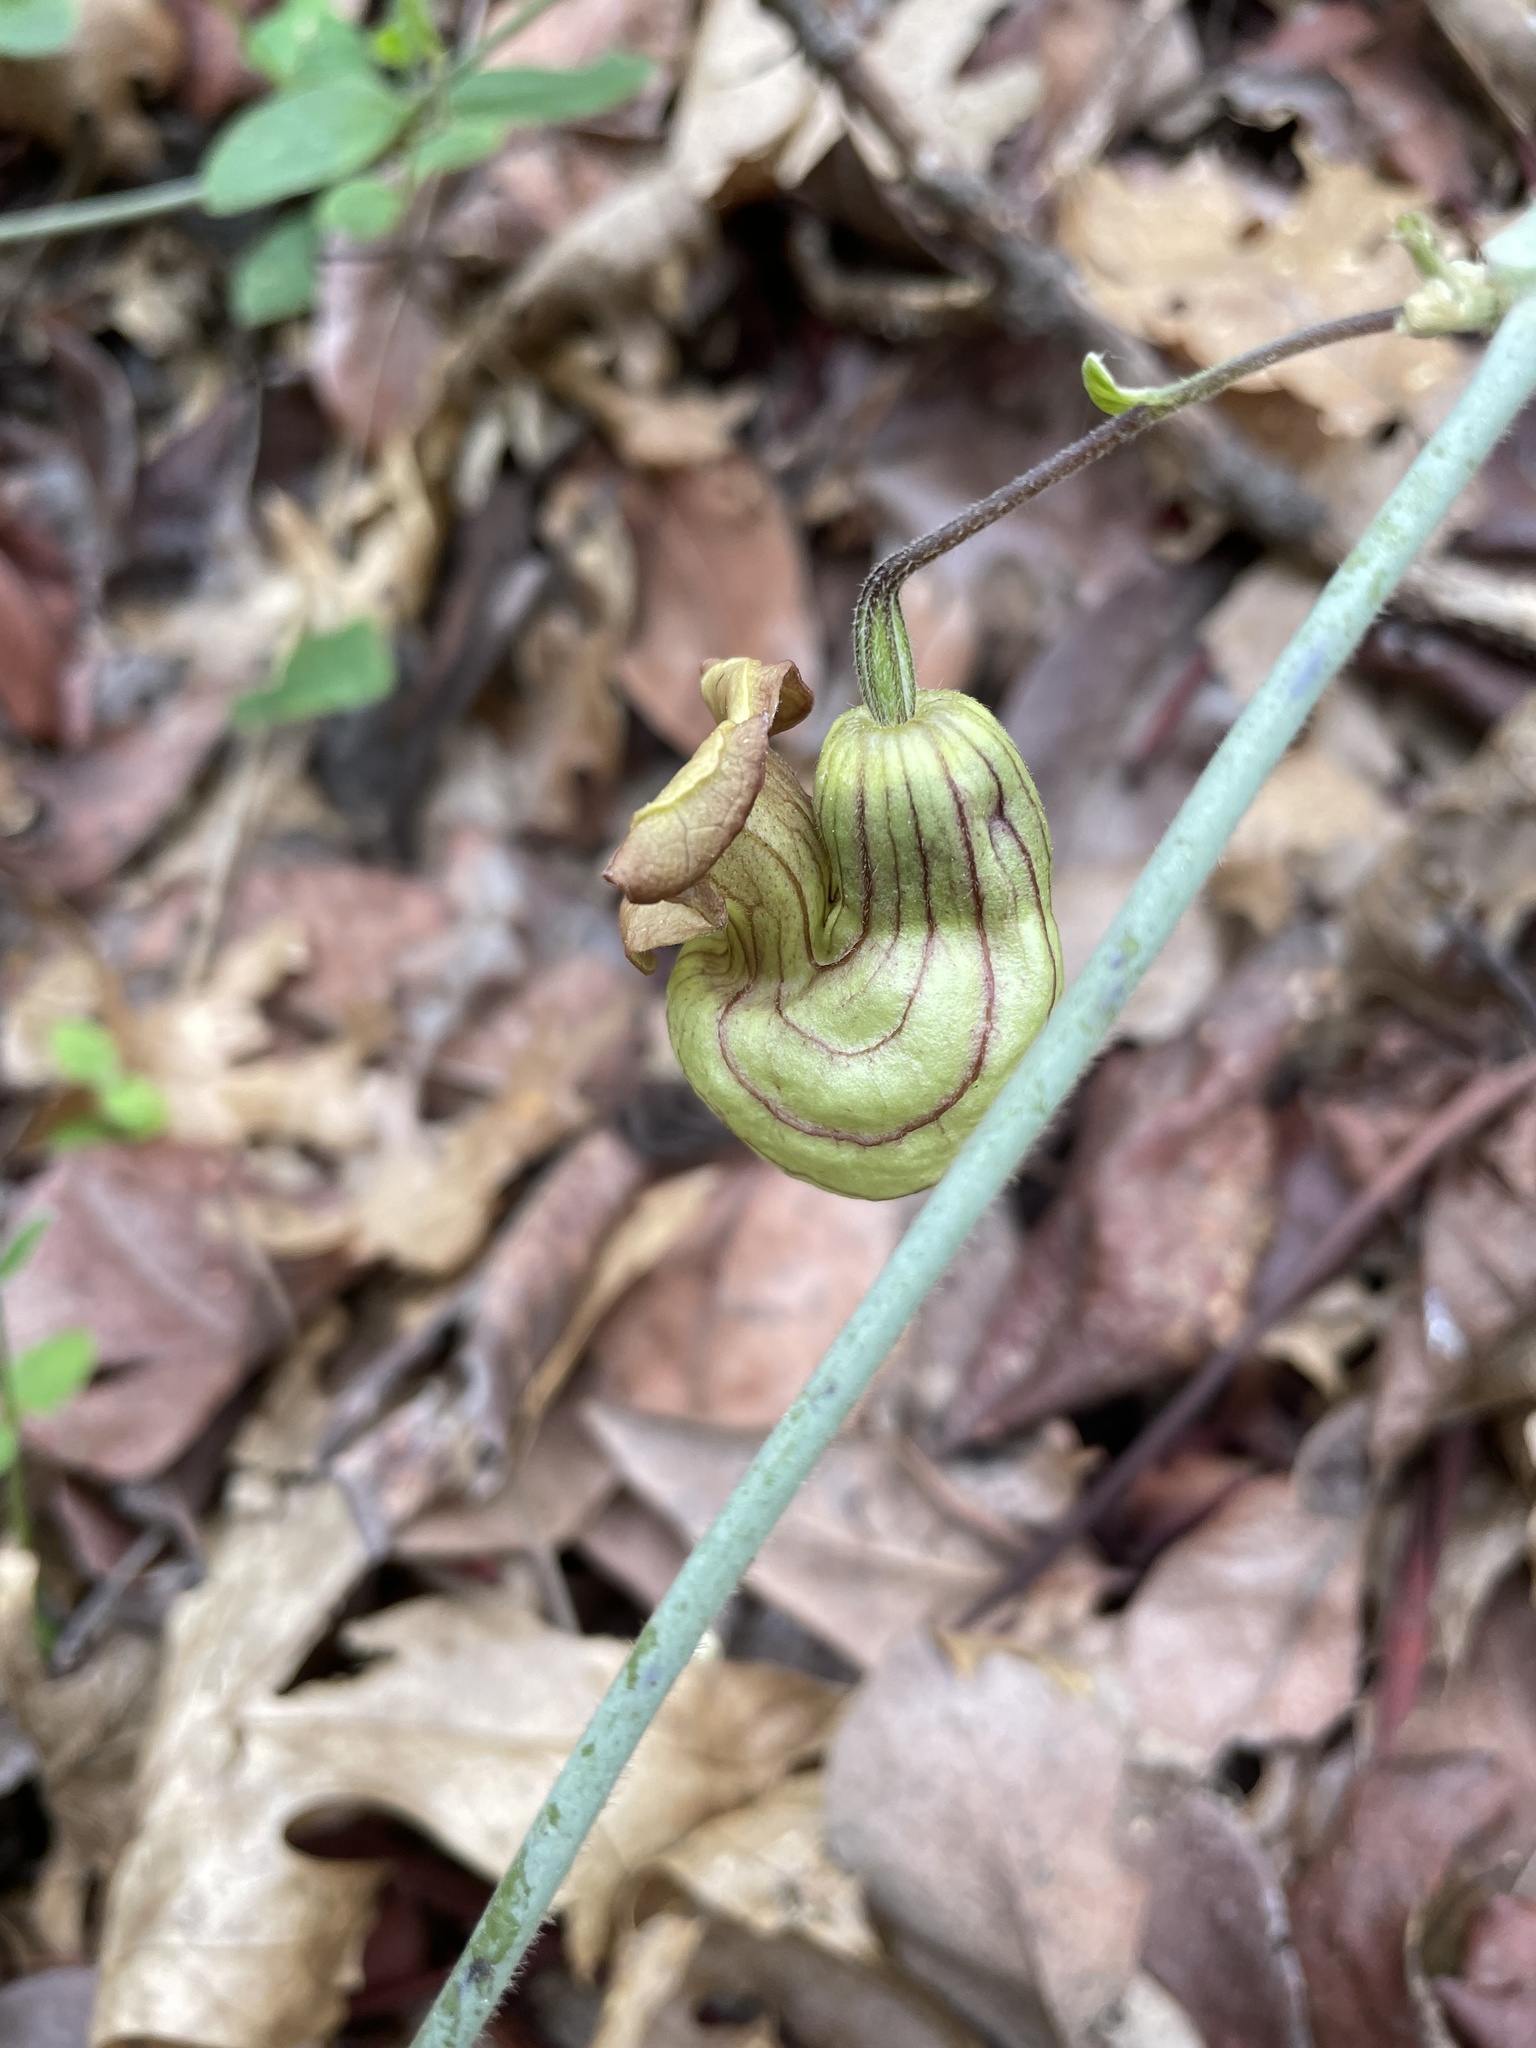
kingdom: Plantae
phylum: Tracheophyta
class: Magnoliopsida
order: Piperales
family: Aristolochiaceae
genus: Isotrema
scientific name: Isotrema californicum
